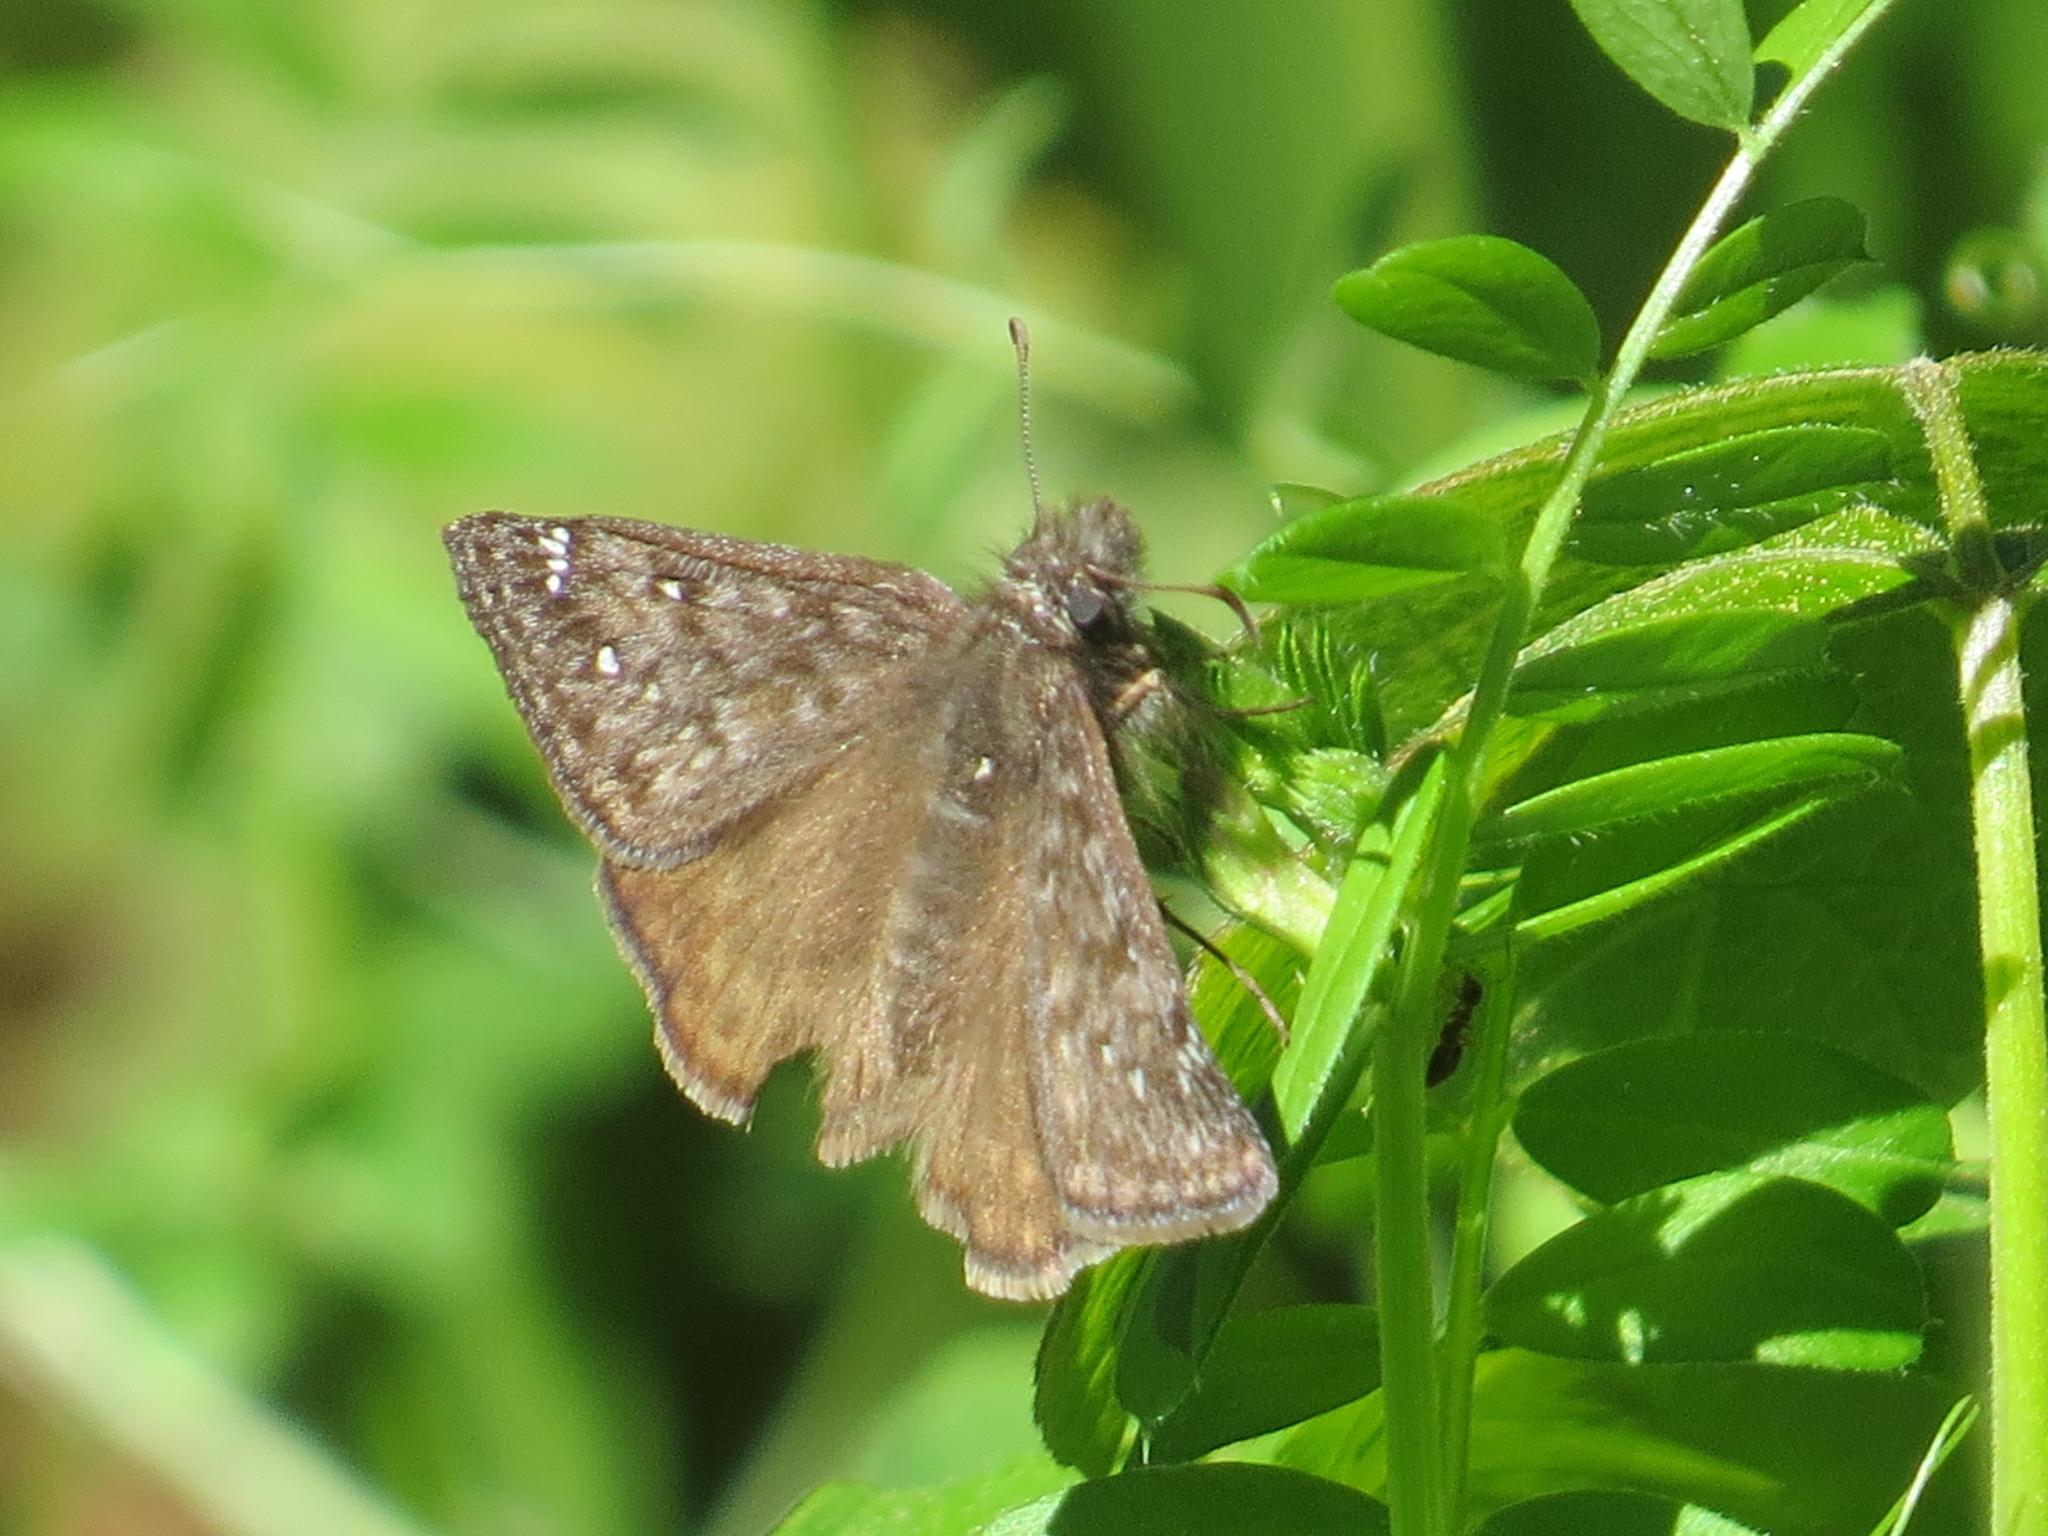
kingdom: Animalia
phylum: Arthropoda
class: Insecta
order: Lepidoptera
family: Hesperiidae
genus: Erynnis
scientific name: Erynnis propertius
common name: Propertius duskywing
